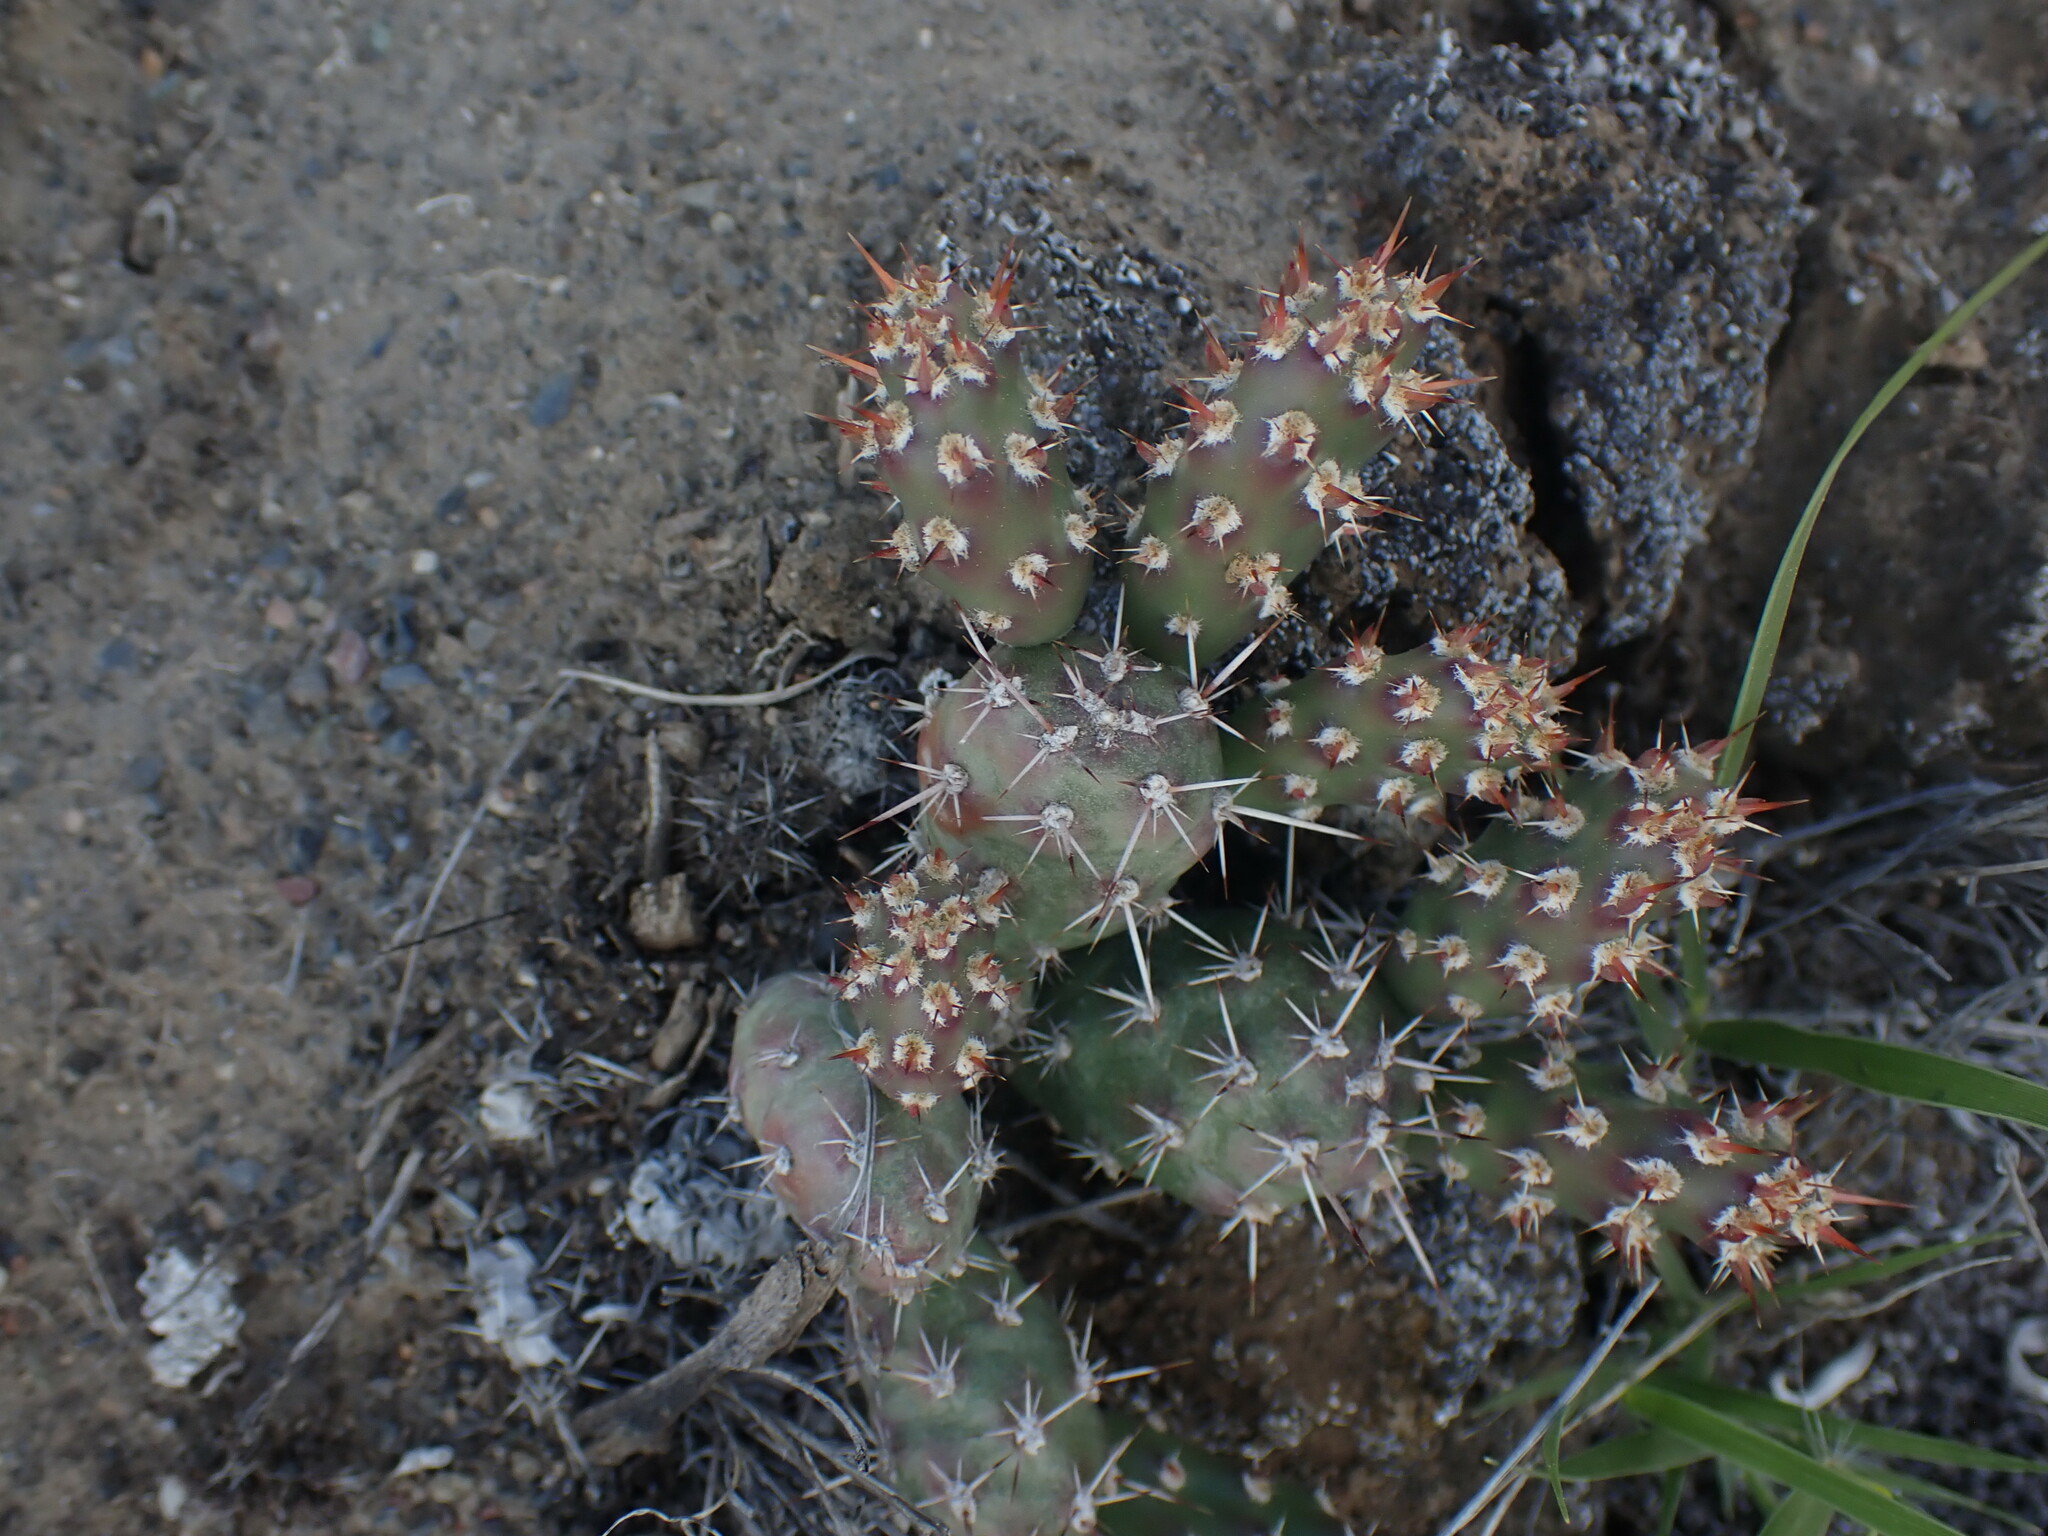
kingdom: Plantae
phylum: Tracheophyta
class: Magnoliopsida
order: Caryophyllales
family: Cactaceae
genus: Opuntia
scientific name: Opuntia fragilis
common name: Brittle cactus
